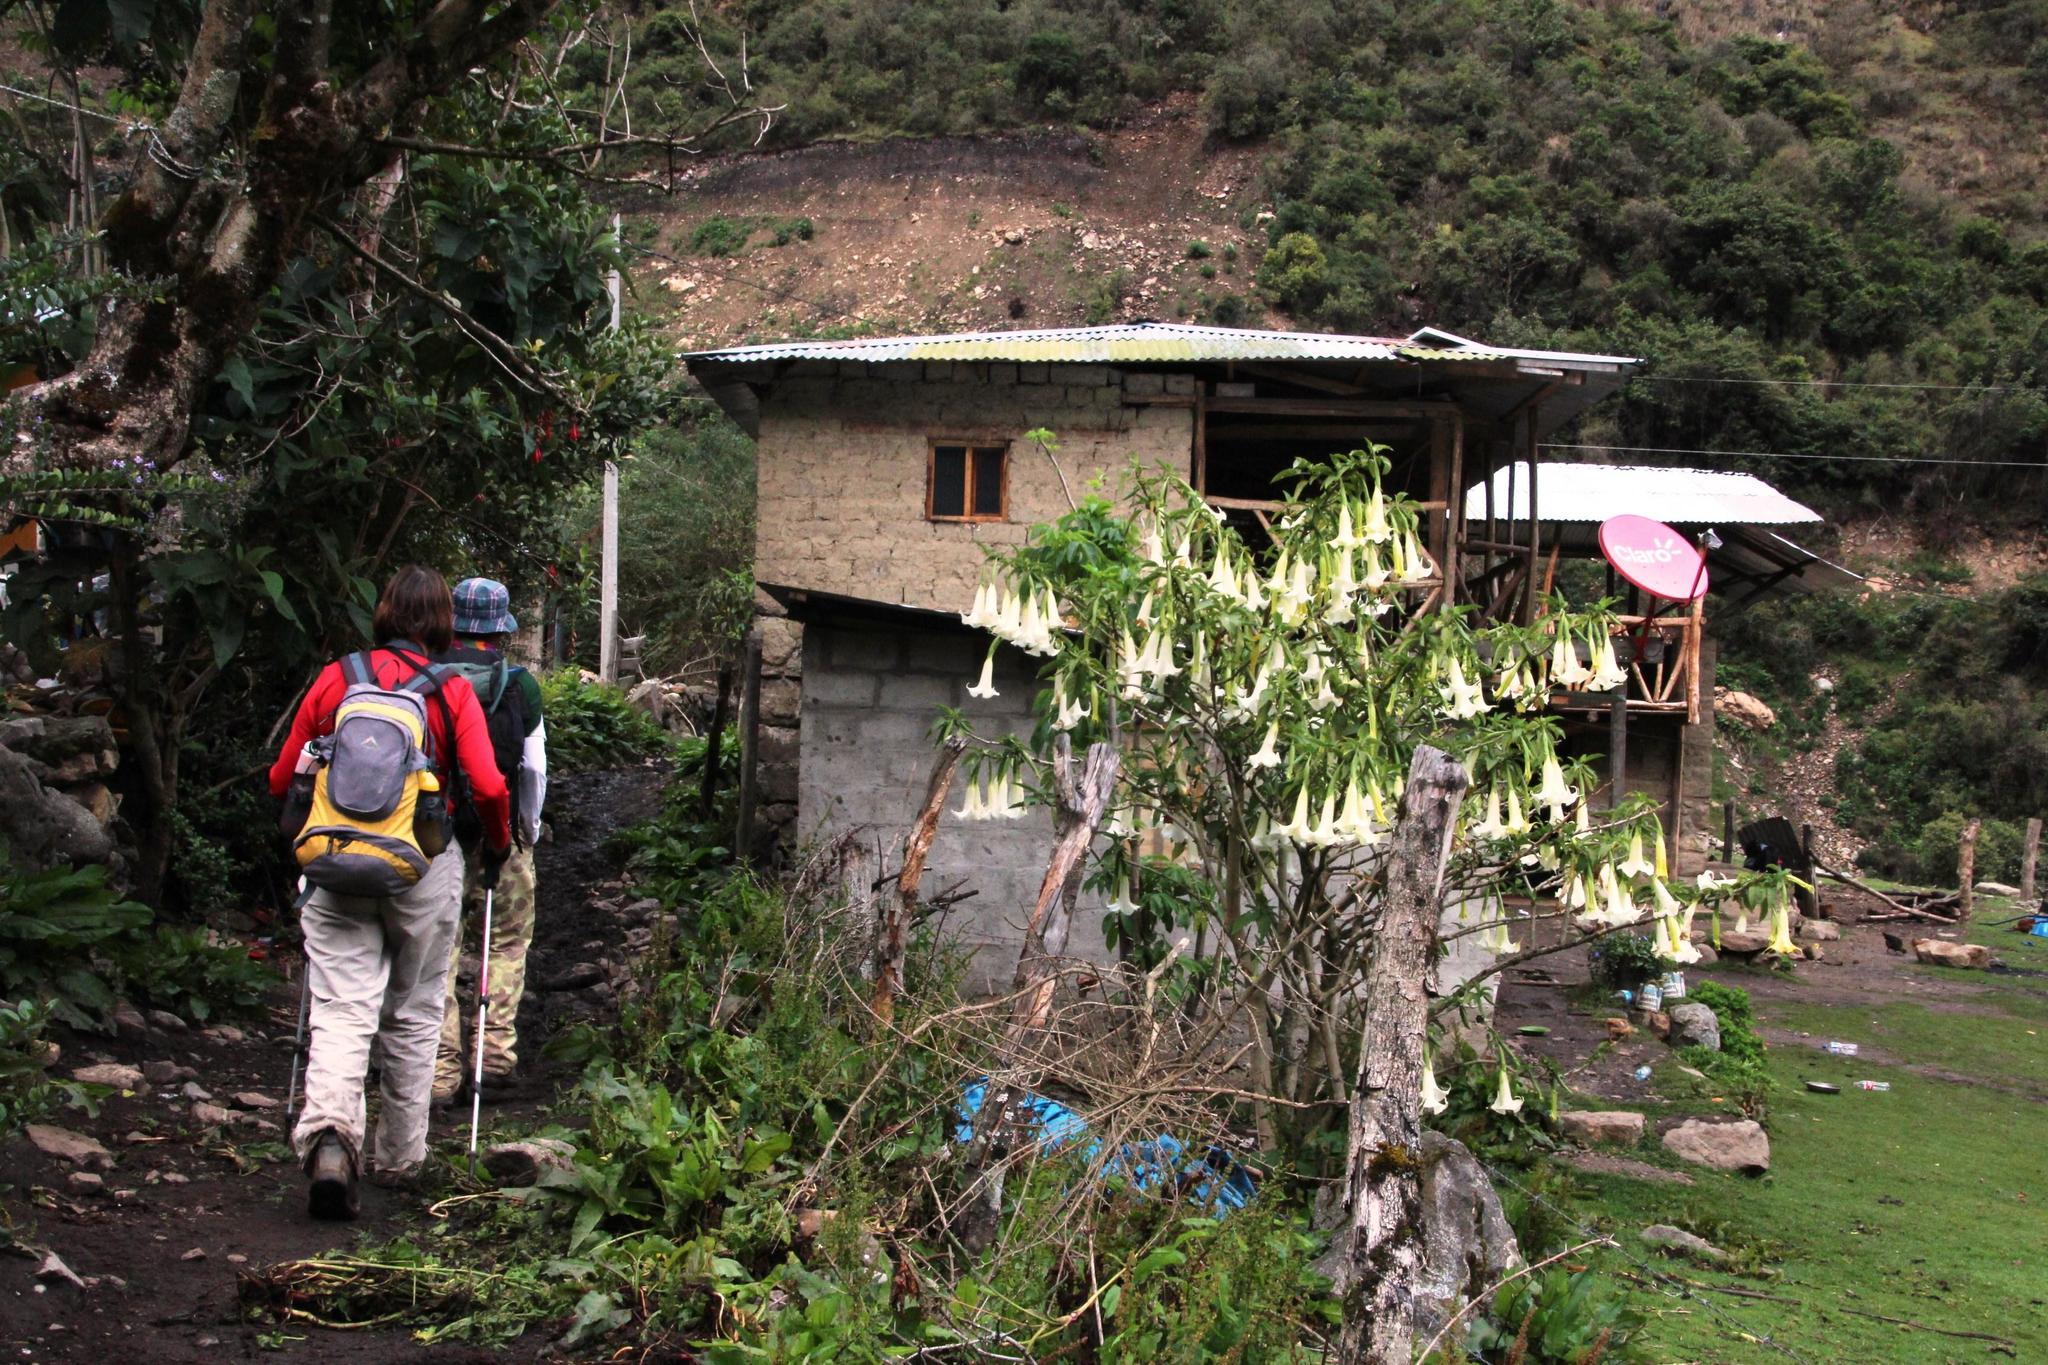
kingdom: Plantae
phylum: Tracheophyta
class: Magnoliopsida
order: Solanales
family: Solanaceae
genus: Brugmansia
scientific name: Brugmansia arborea
